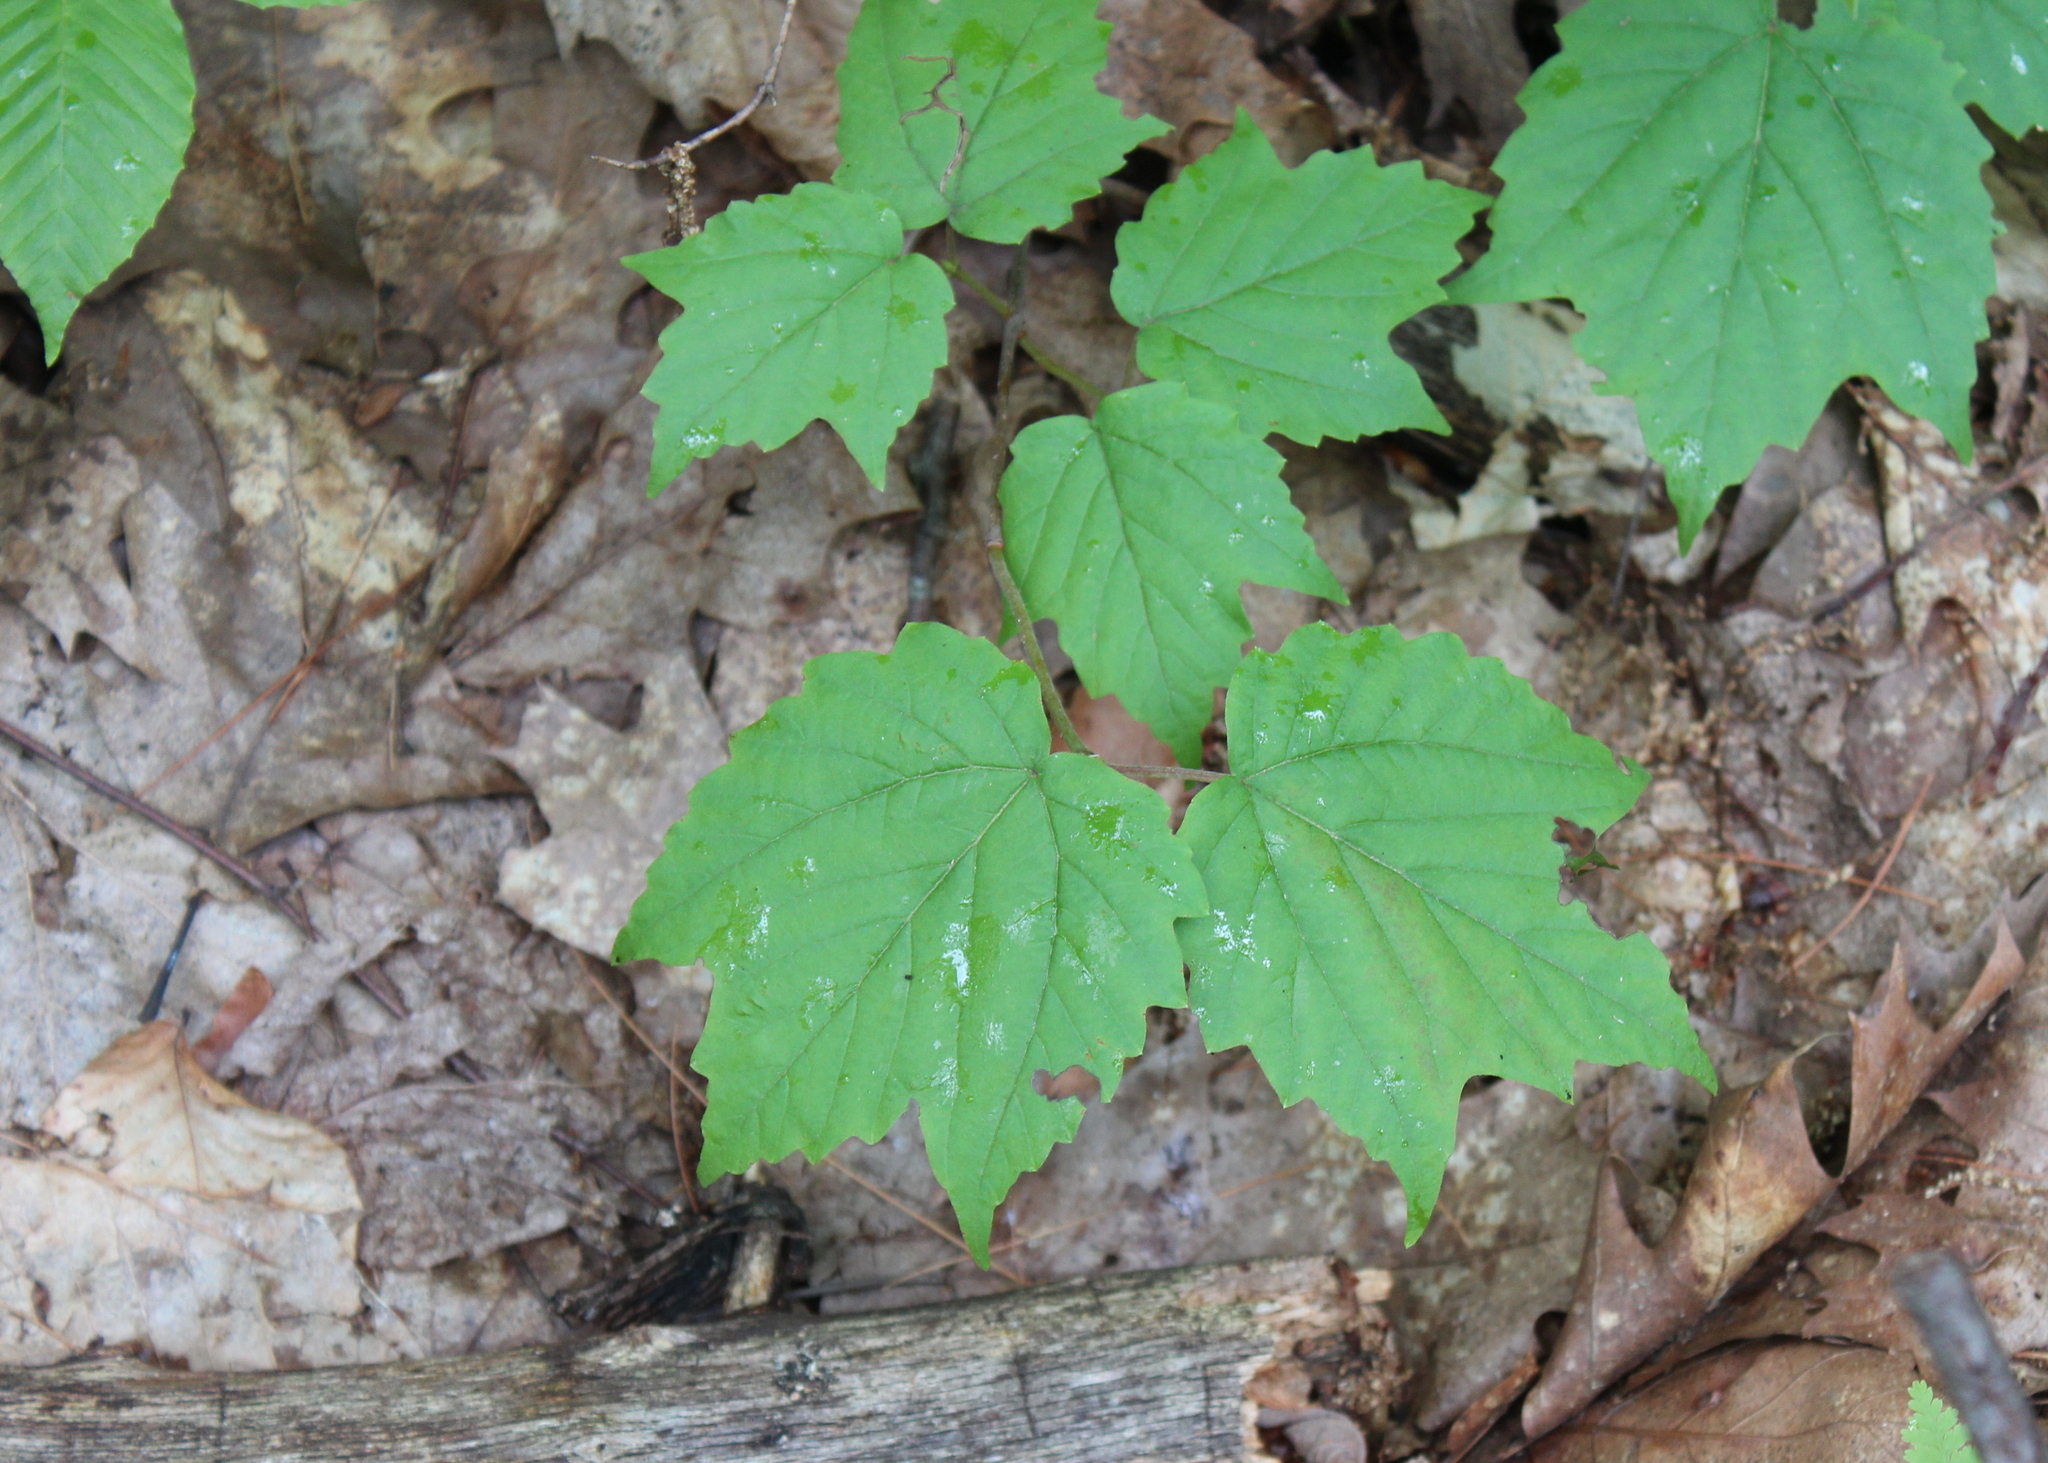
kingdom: Plantae
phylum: Tracheophyta
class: Magnoliopsida
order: Dipsacales
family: Viburnaceae
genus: Viburnum
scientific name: Viburnum acerifolium
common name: Dockmackie
